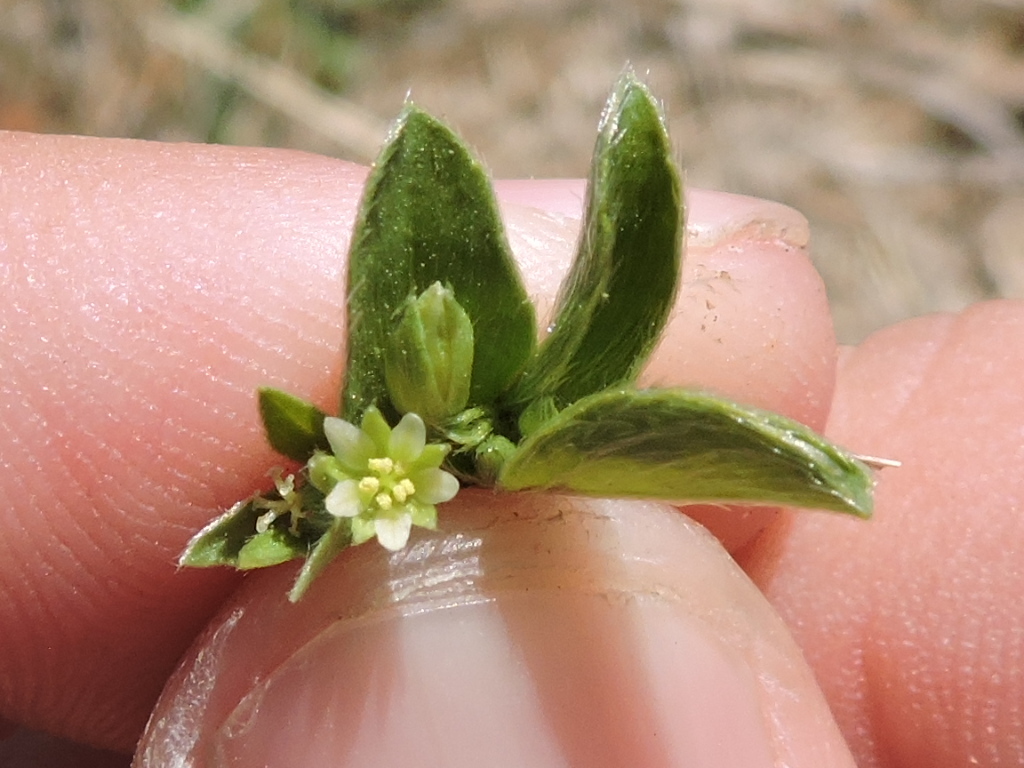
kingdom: Plantae
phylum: Tracheophyta
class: Magnoliopsida
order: Malpighiales
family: Euphorbiaceae
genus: Ditaxis
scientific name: Ditaxis humilis
